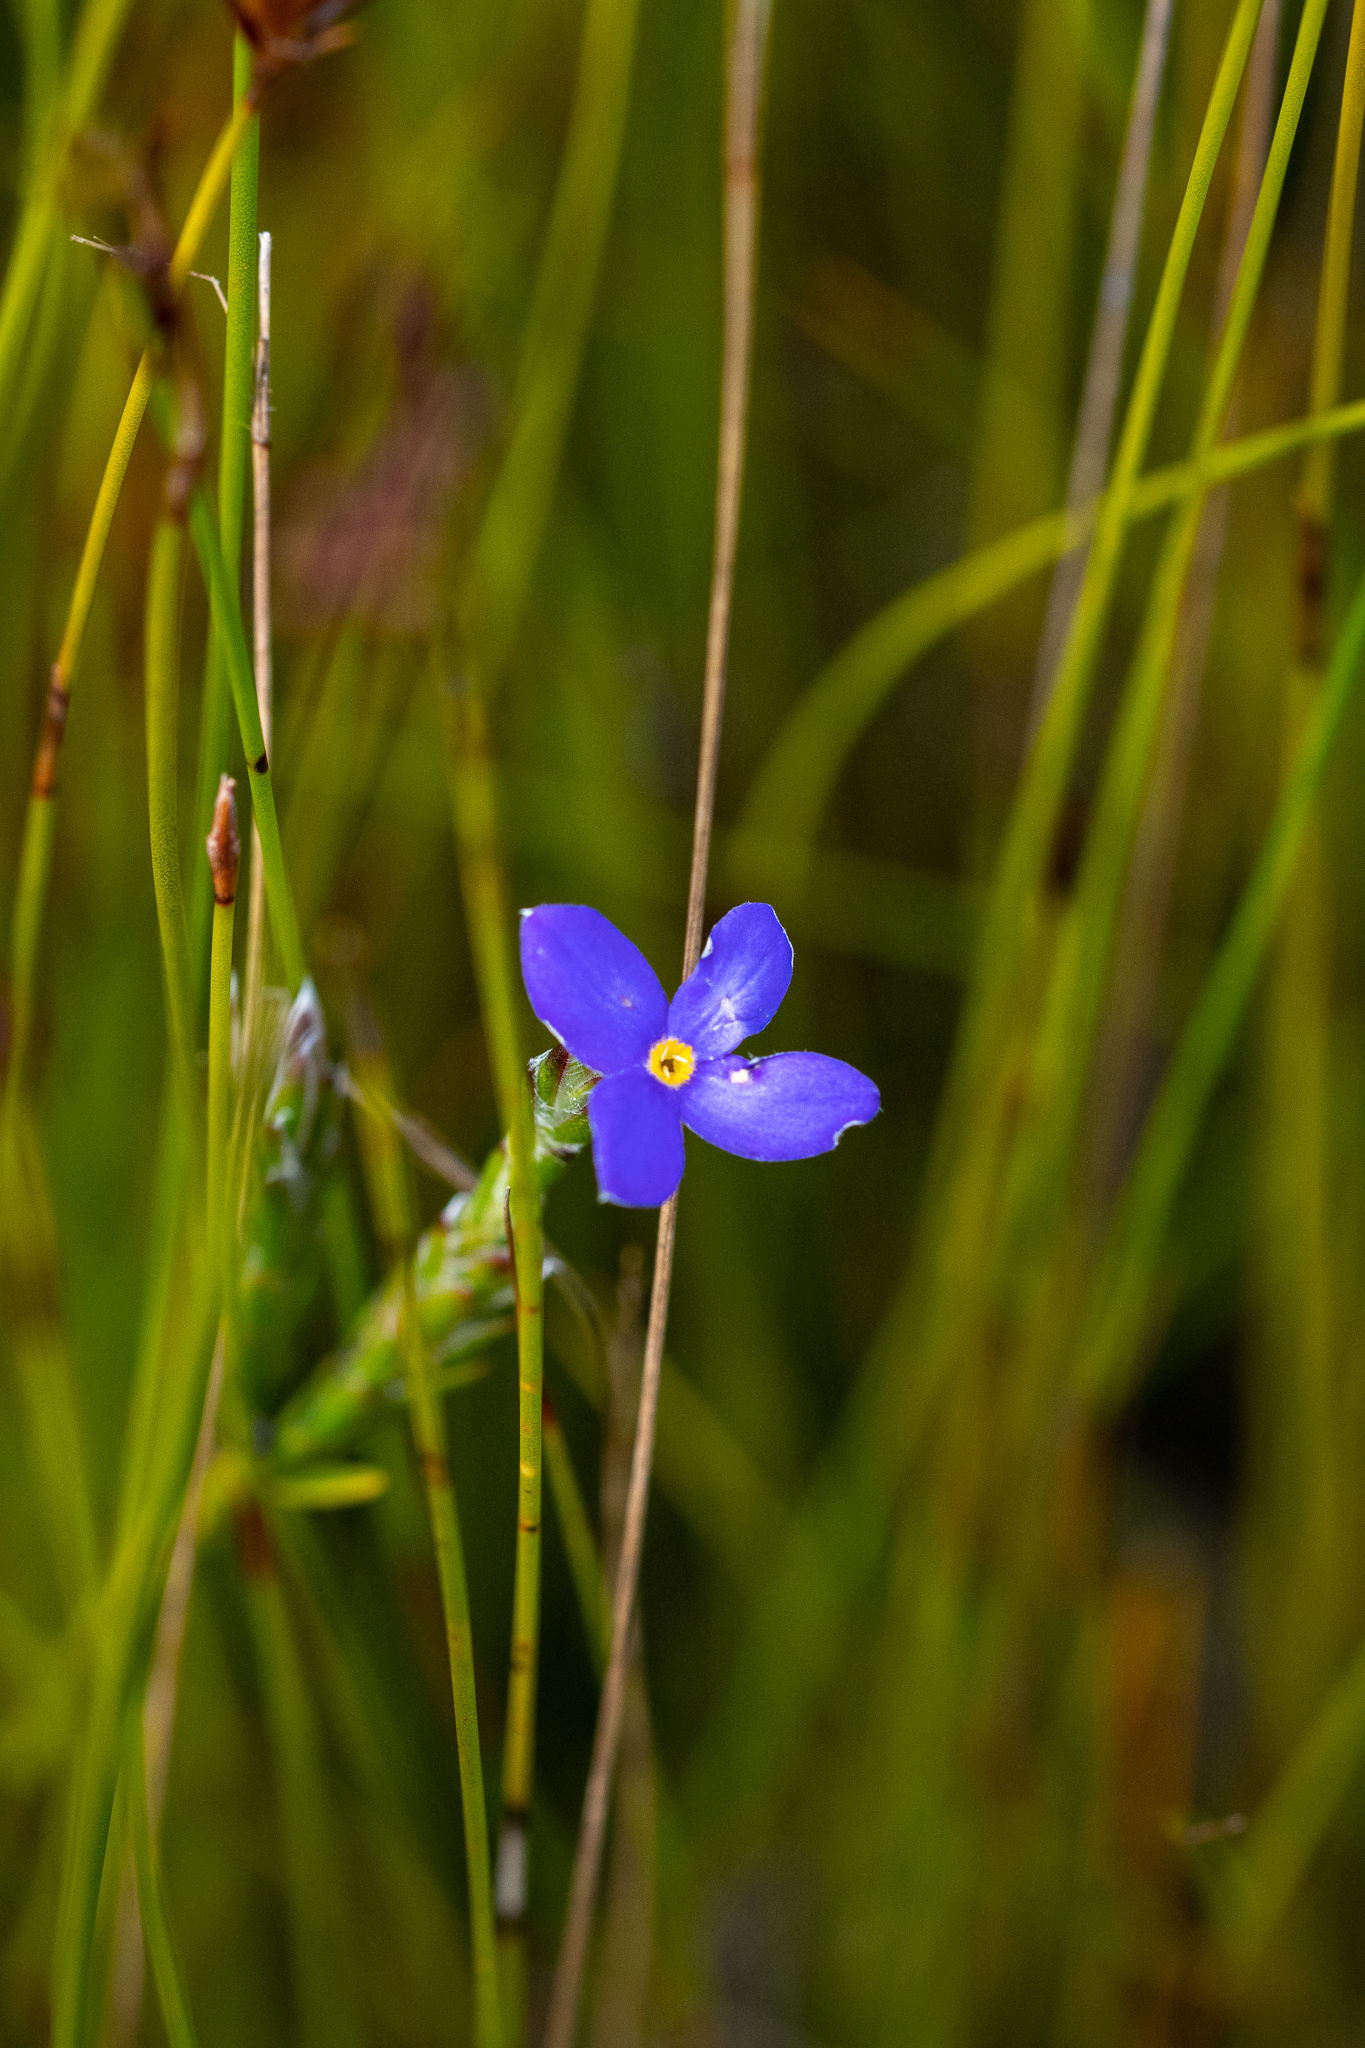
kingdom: Plantae
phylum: Tracheophyta
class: Magnoliopsida
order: Malvales
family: Thymelaeaceae
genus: Gnidia
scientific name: Gnidia penicillata
